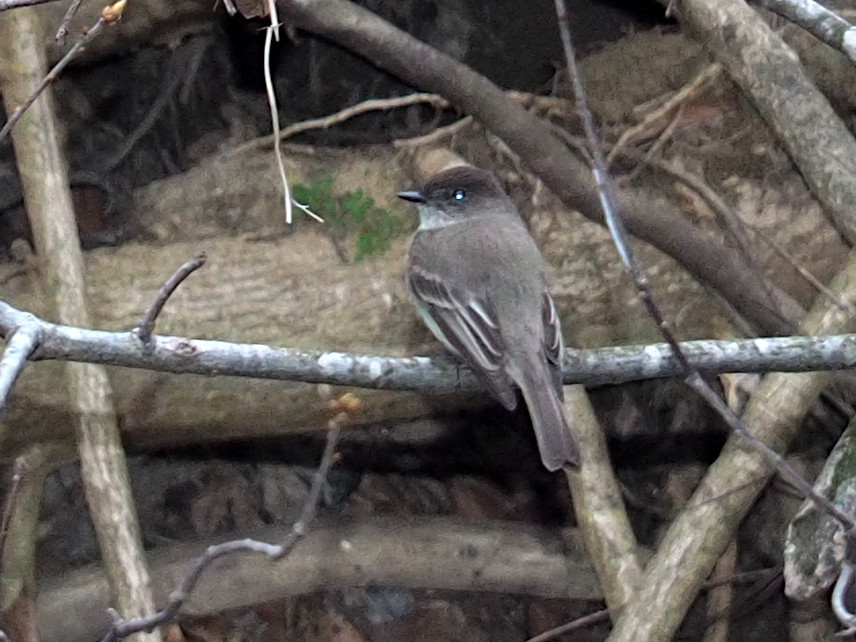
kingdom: Animalia
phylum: Chordata
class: Aves
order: Passeriformes
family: Tyrannidae
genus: Sayornis
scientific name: Sayornis phoebe
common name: Eastern phoebe
